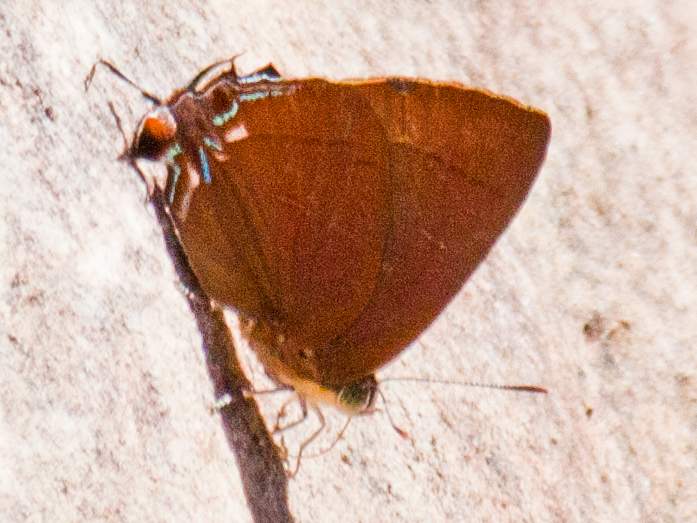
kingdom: Animalia
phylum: Arthropoda
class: Insecta
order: Lepidoptera
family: Lycaenidae
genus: Remelana
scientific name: Remelana jangala
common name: Chocolate royal
